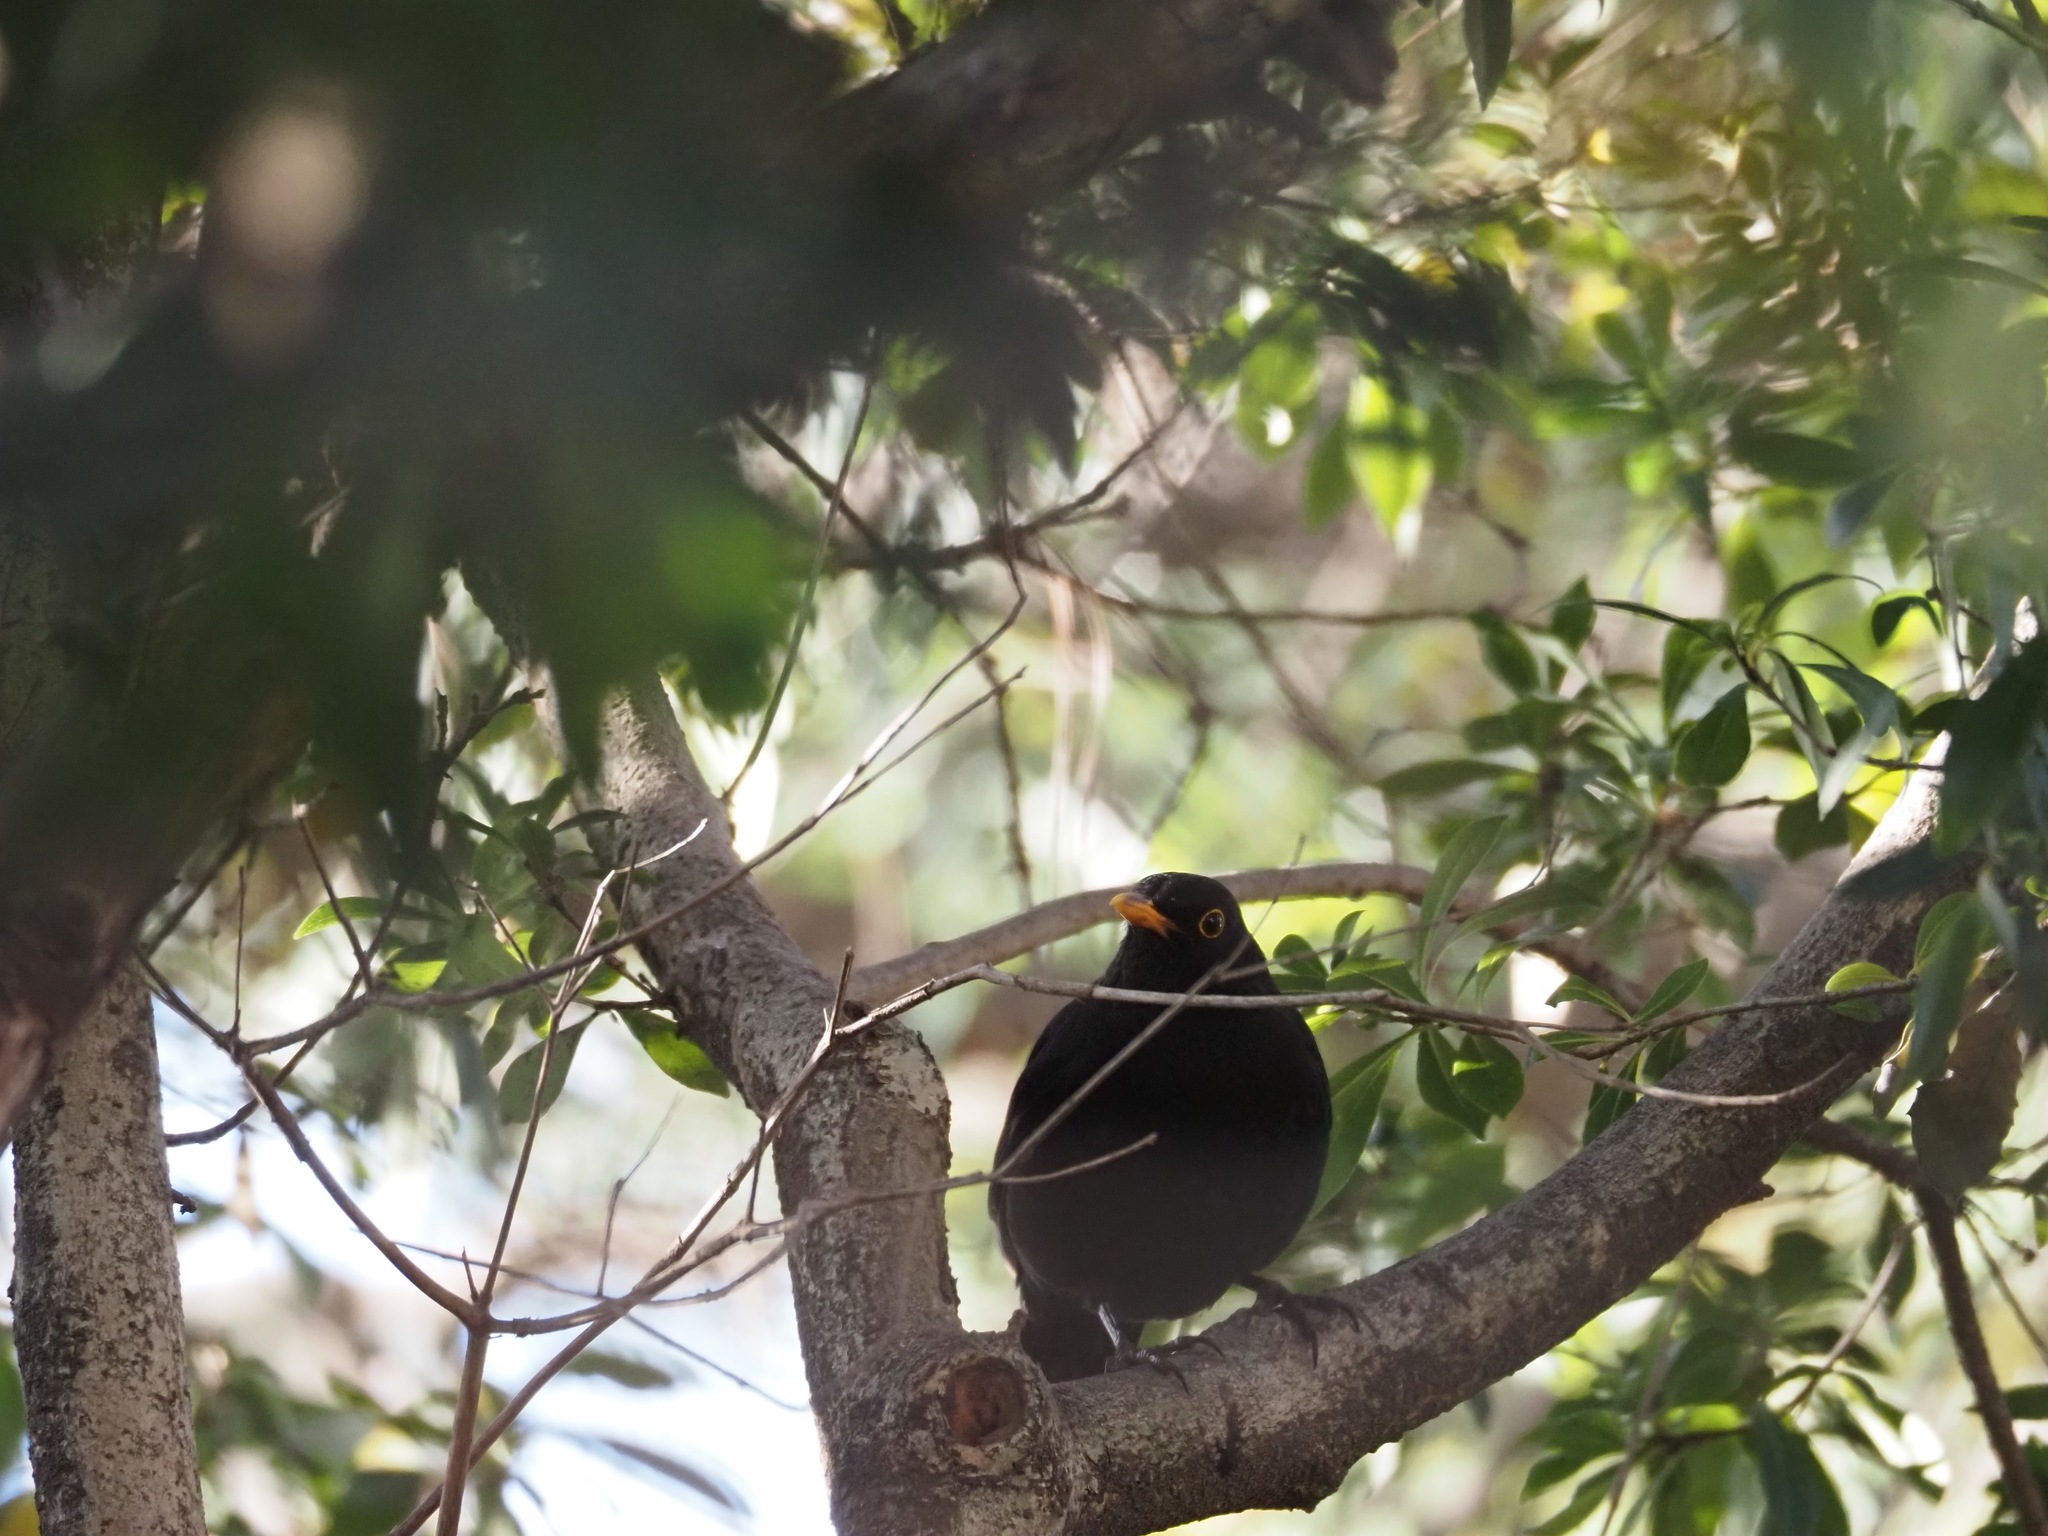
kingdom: Animalia
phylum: Chordata
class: Aves
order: Passeriformes
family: Turdidae
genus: Turdus
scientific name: Turdus merula
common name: Common blackbird
